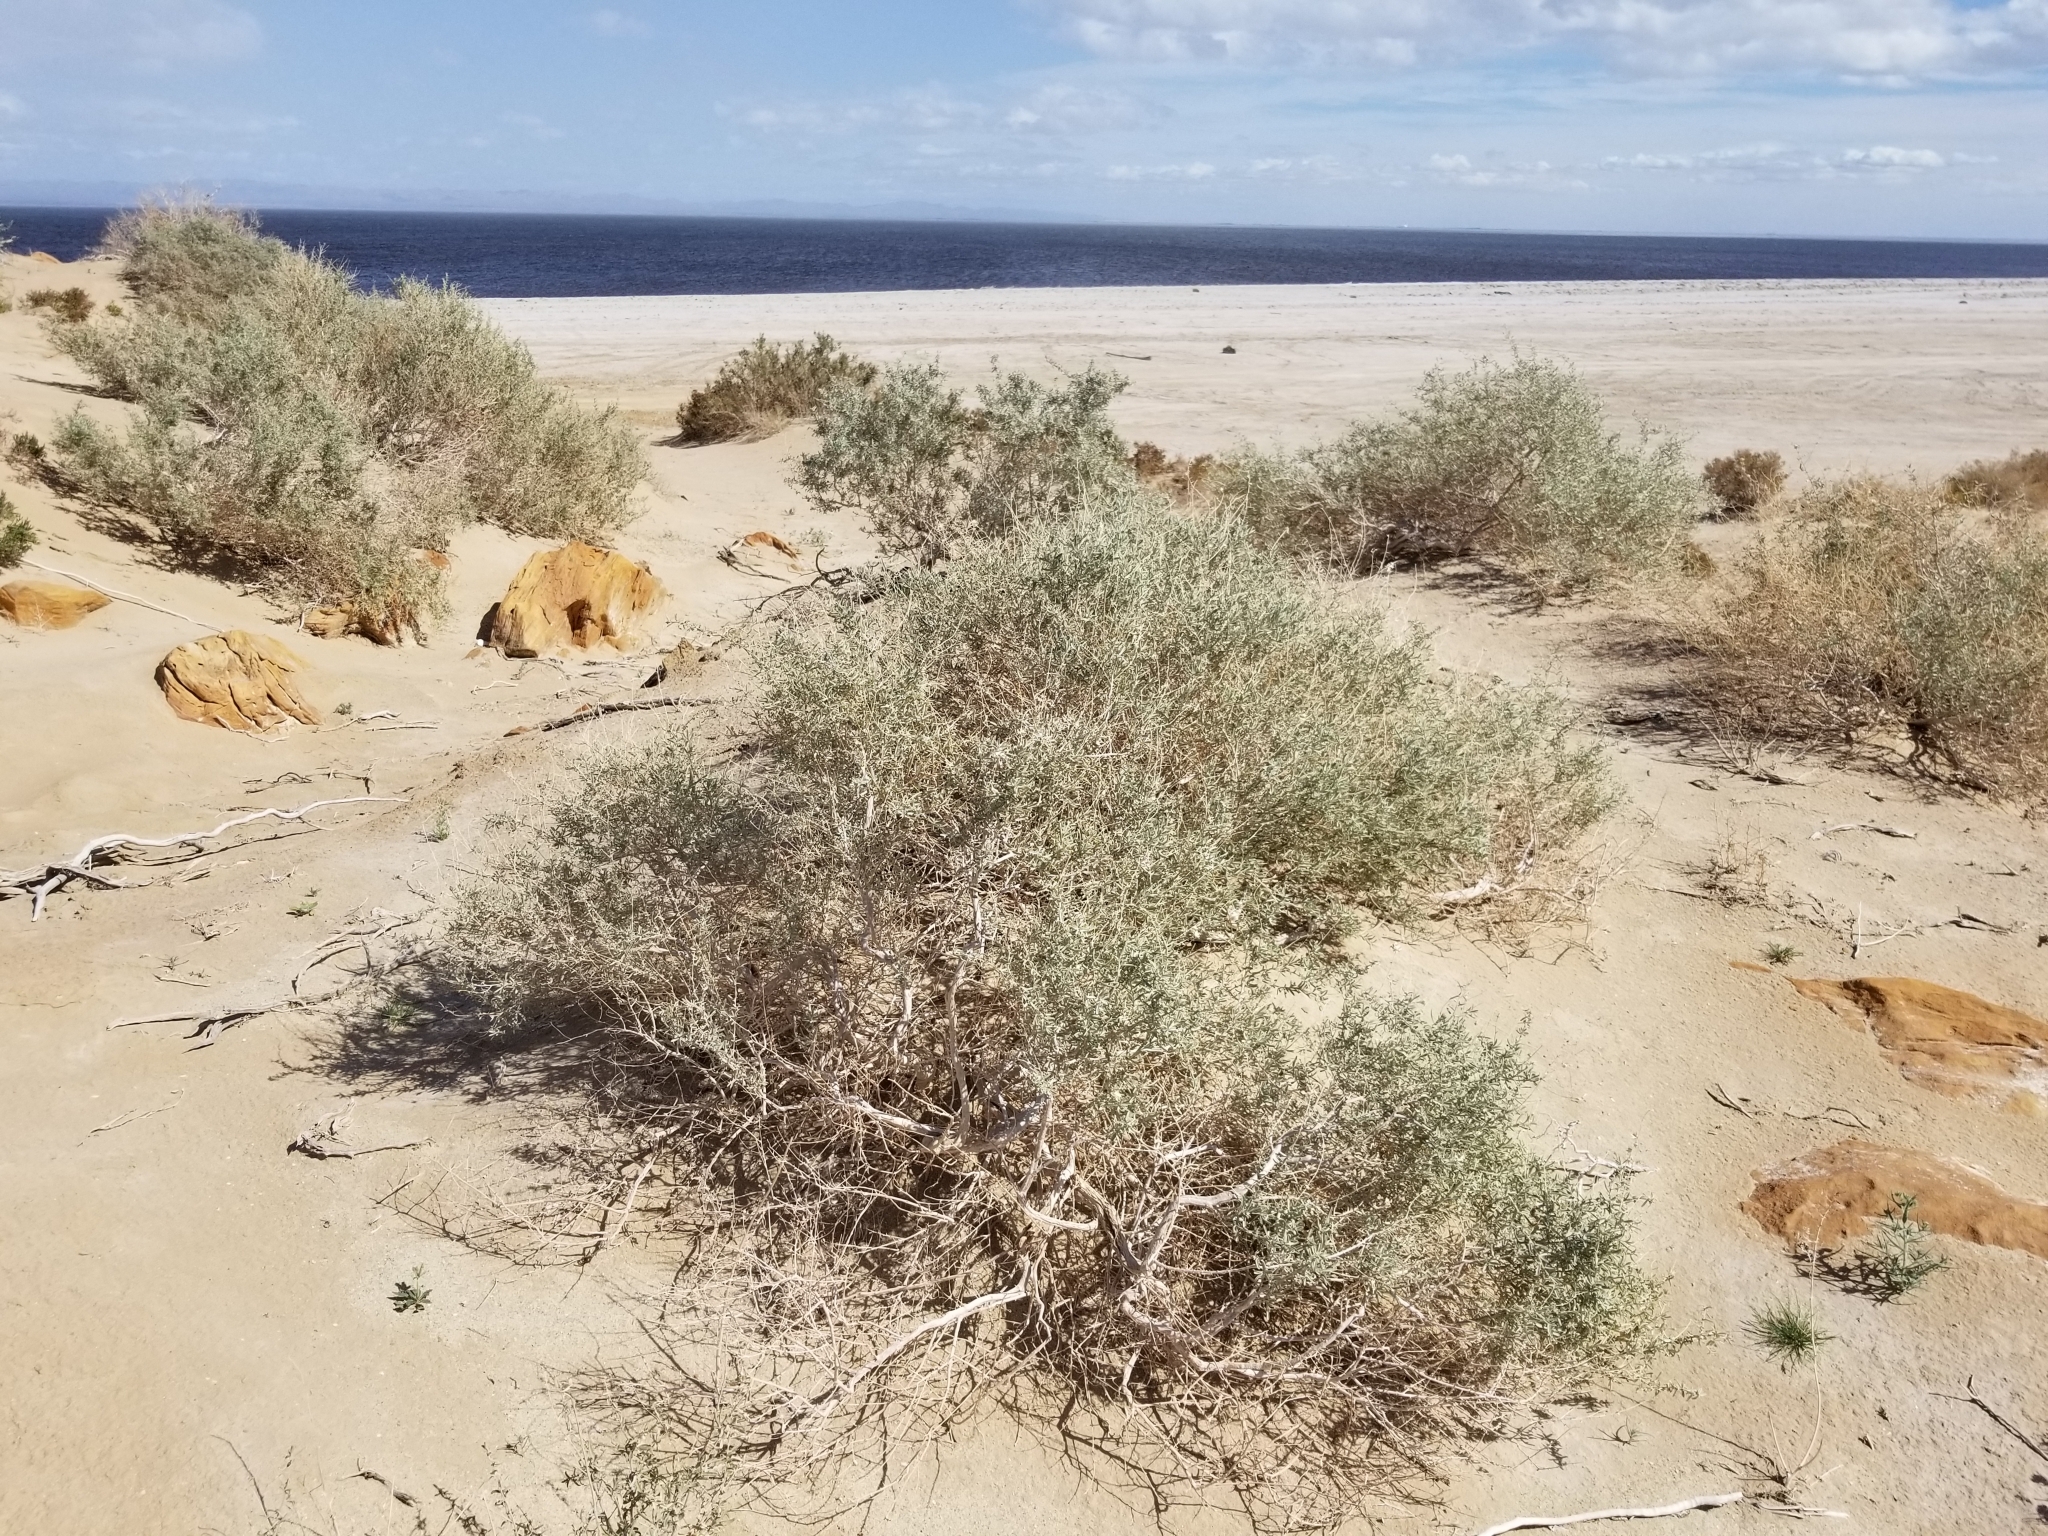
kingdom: Plantae
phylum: Tracheophyta
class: Magnoliopsida
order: Caryophyllales
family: Amaranthaceae
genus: Atriplex
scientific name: Atriplex canescens
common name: Four-wing saltbush
